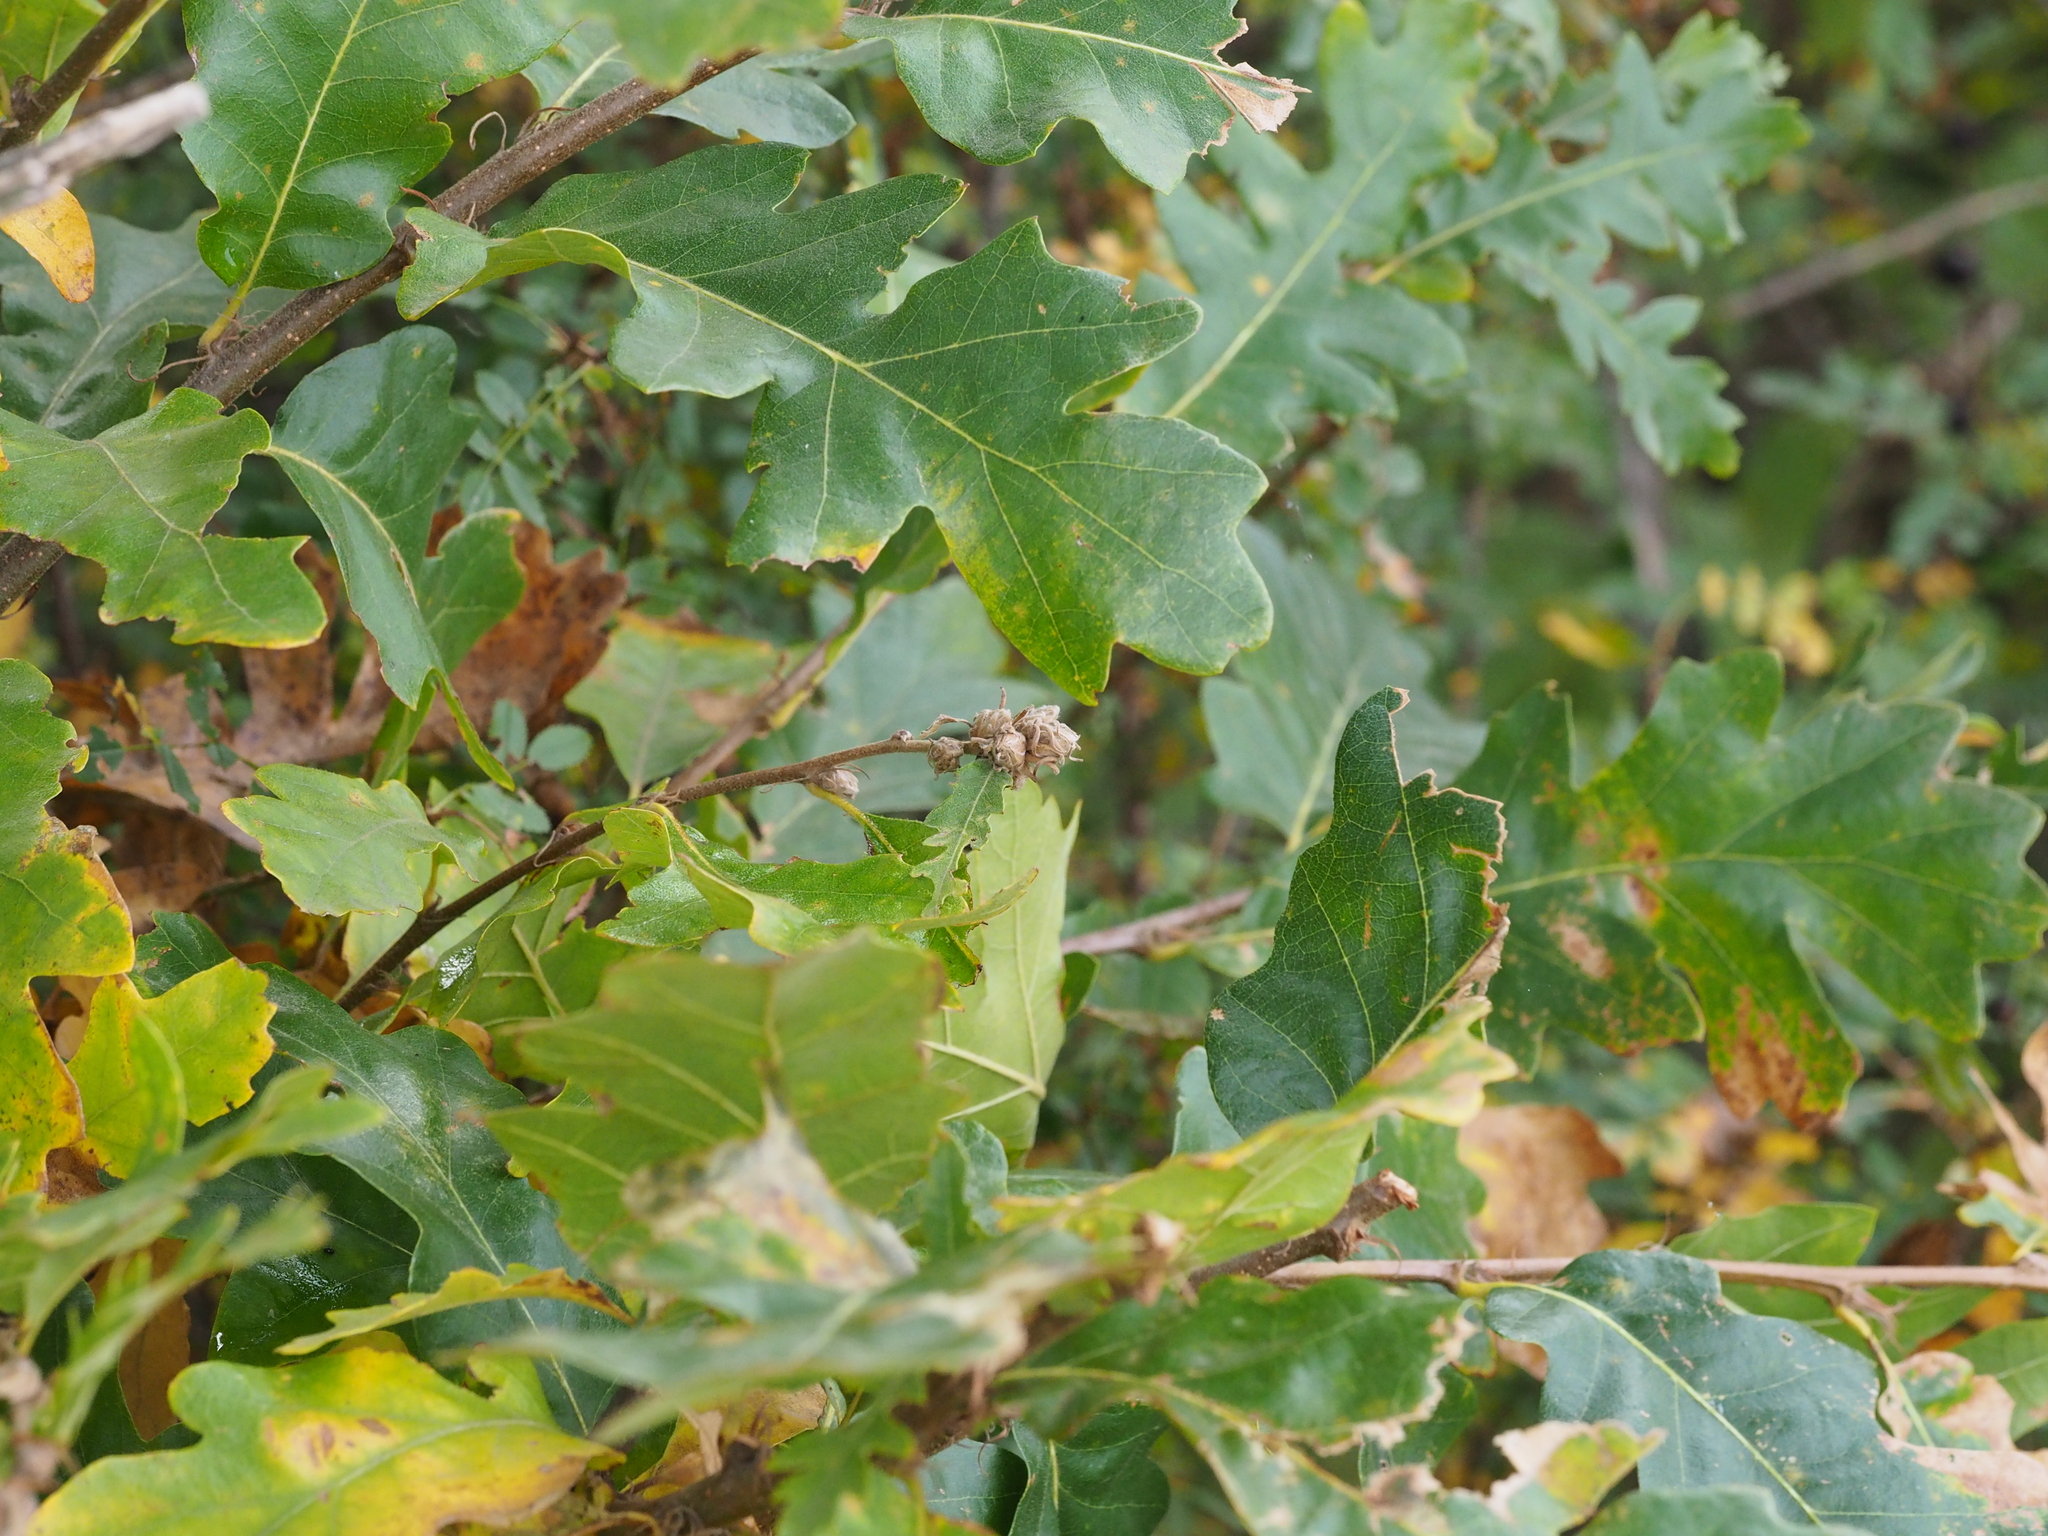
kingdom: Plantae
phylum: Tracheophyta
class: Magnoliopsida
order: Fagales
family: Fagaceae
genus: Quercus
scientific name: Quercus cerris
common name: Turkey oak
